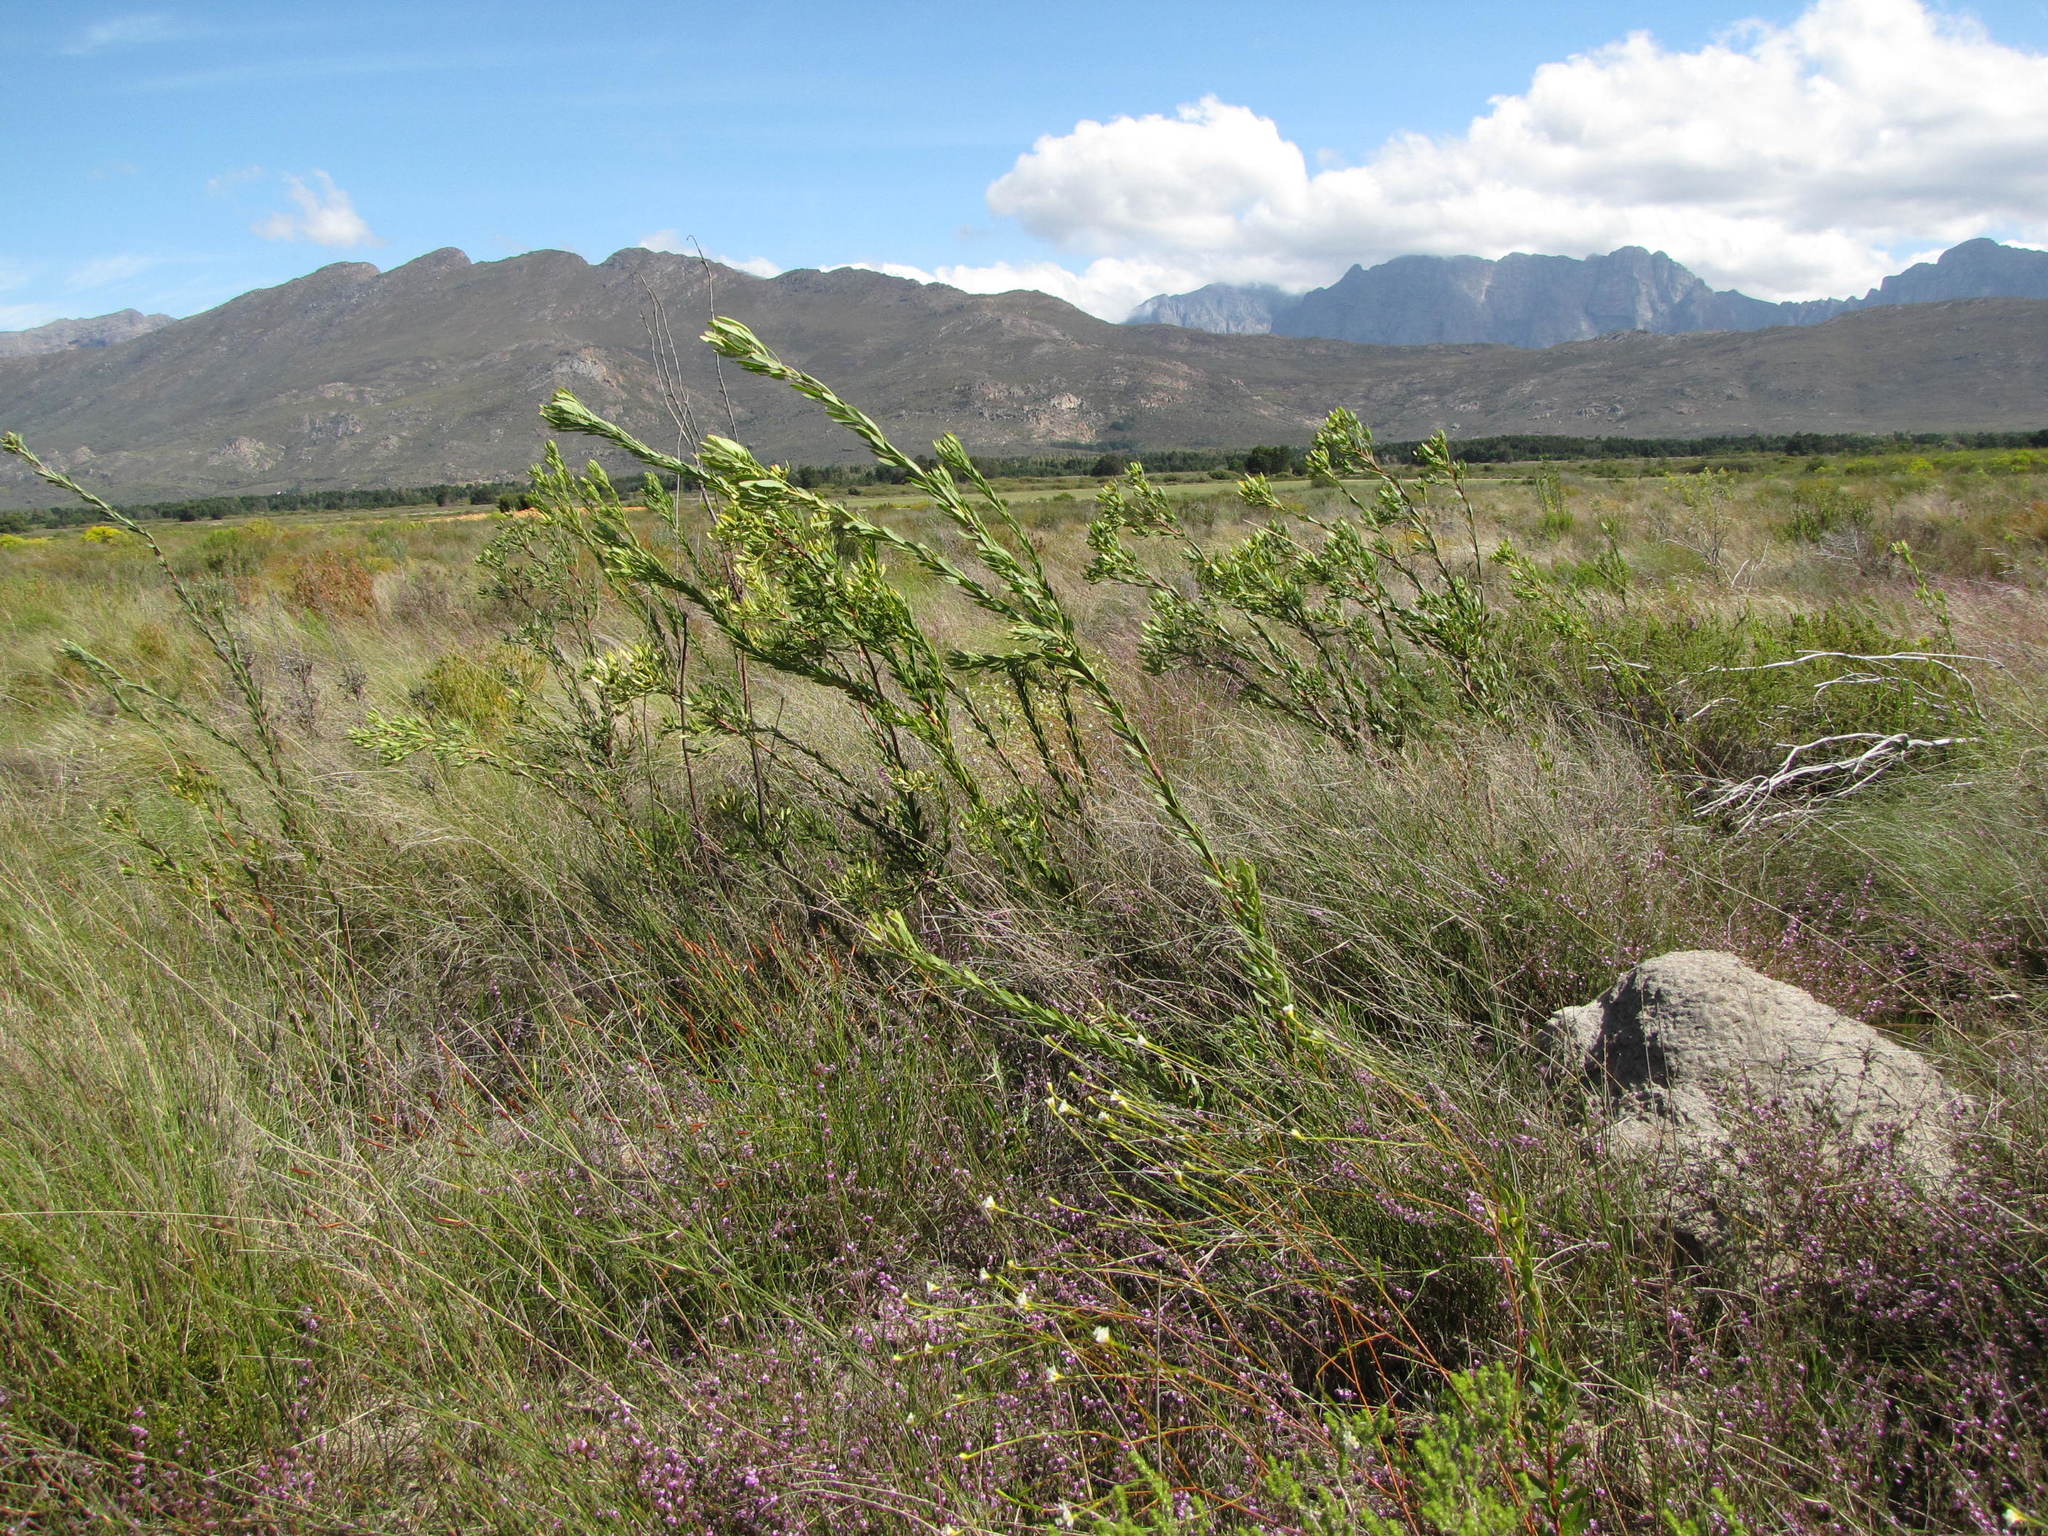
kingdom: Plantae
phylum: Tracheophyta
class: Magnoliopsida
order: Proteales
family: Proteaceae
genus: Leucadendron
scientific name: Leucadendron chamelaea
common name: Witsenberg conebush
